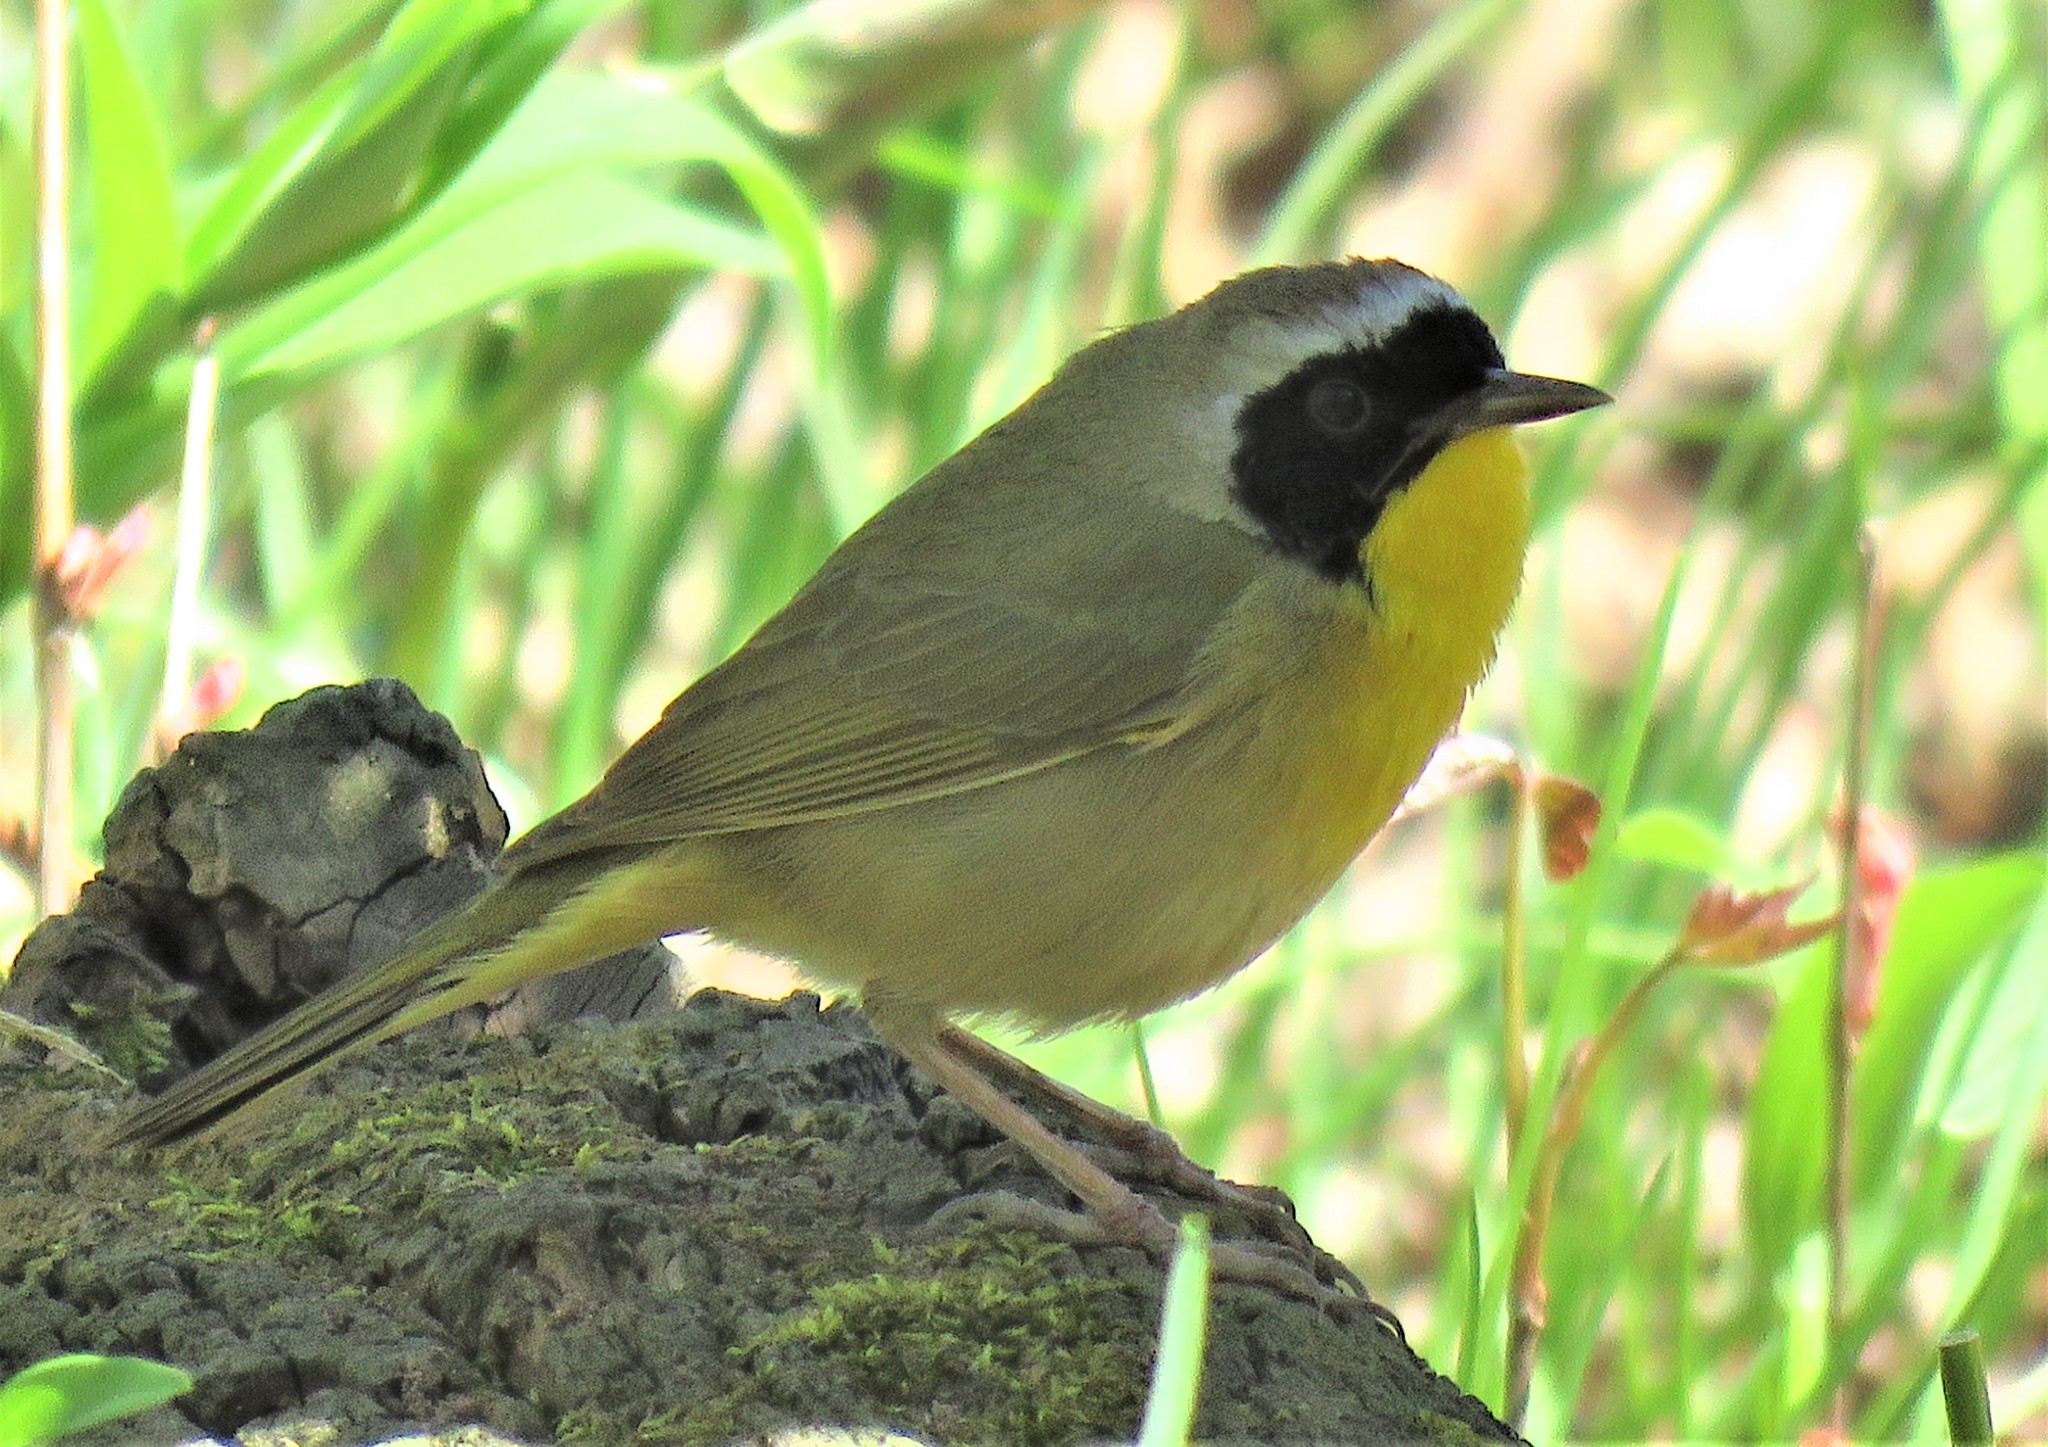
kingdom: Animalia
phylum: Chordata
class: Aves
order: Passeriformes
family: Parulidae
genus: Geothlypis
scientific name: Geothlypis trichas
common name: Common yellowthroat
